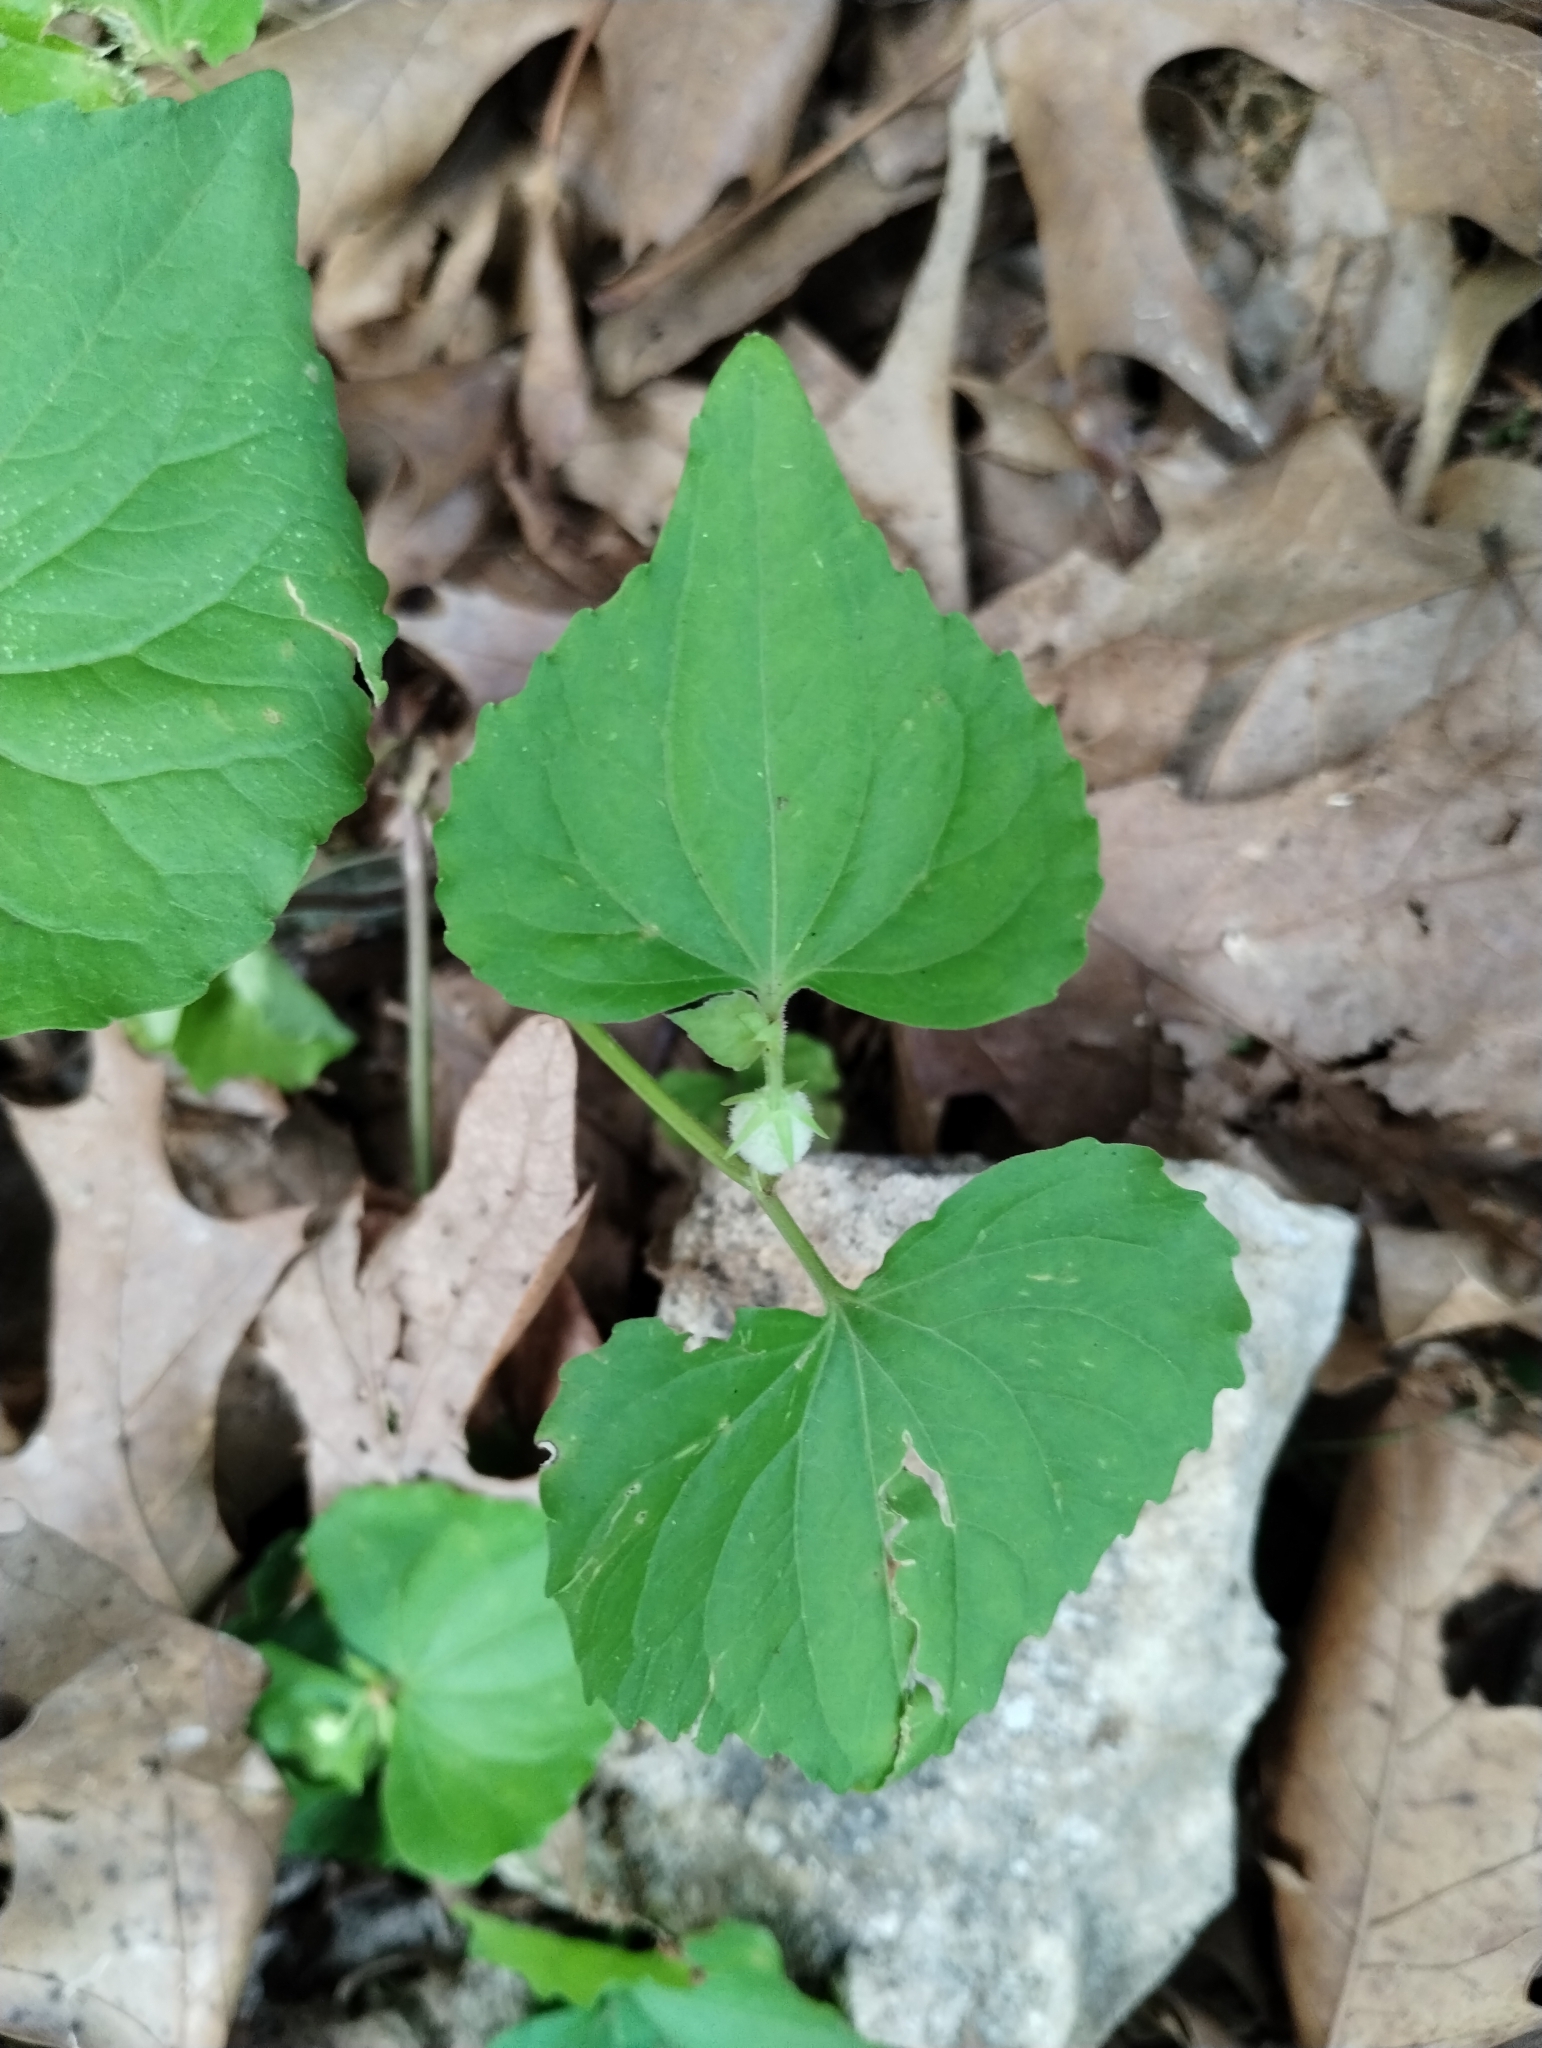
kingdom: Plantae
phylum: Tracheophyta
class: Magnoliopsida
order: Malpighiales
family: Violaceae
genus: Viola
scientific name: Viola eriocarpa
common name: Smooth yellow violet
